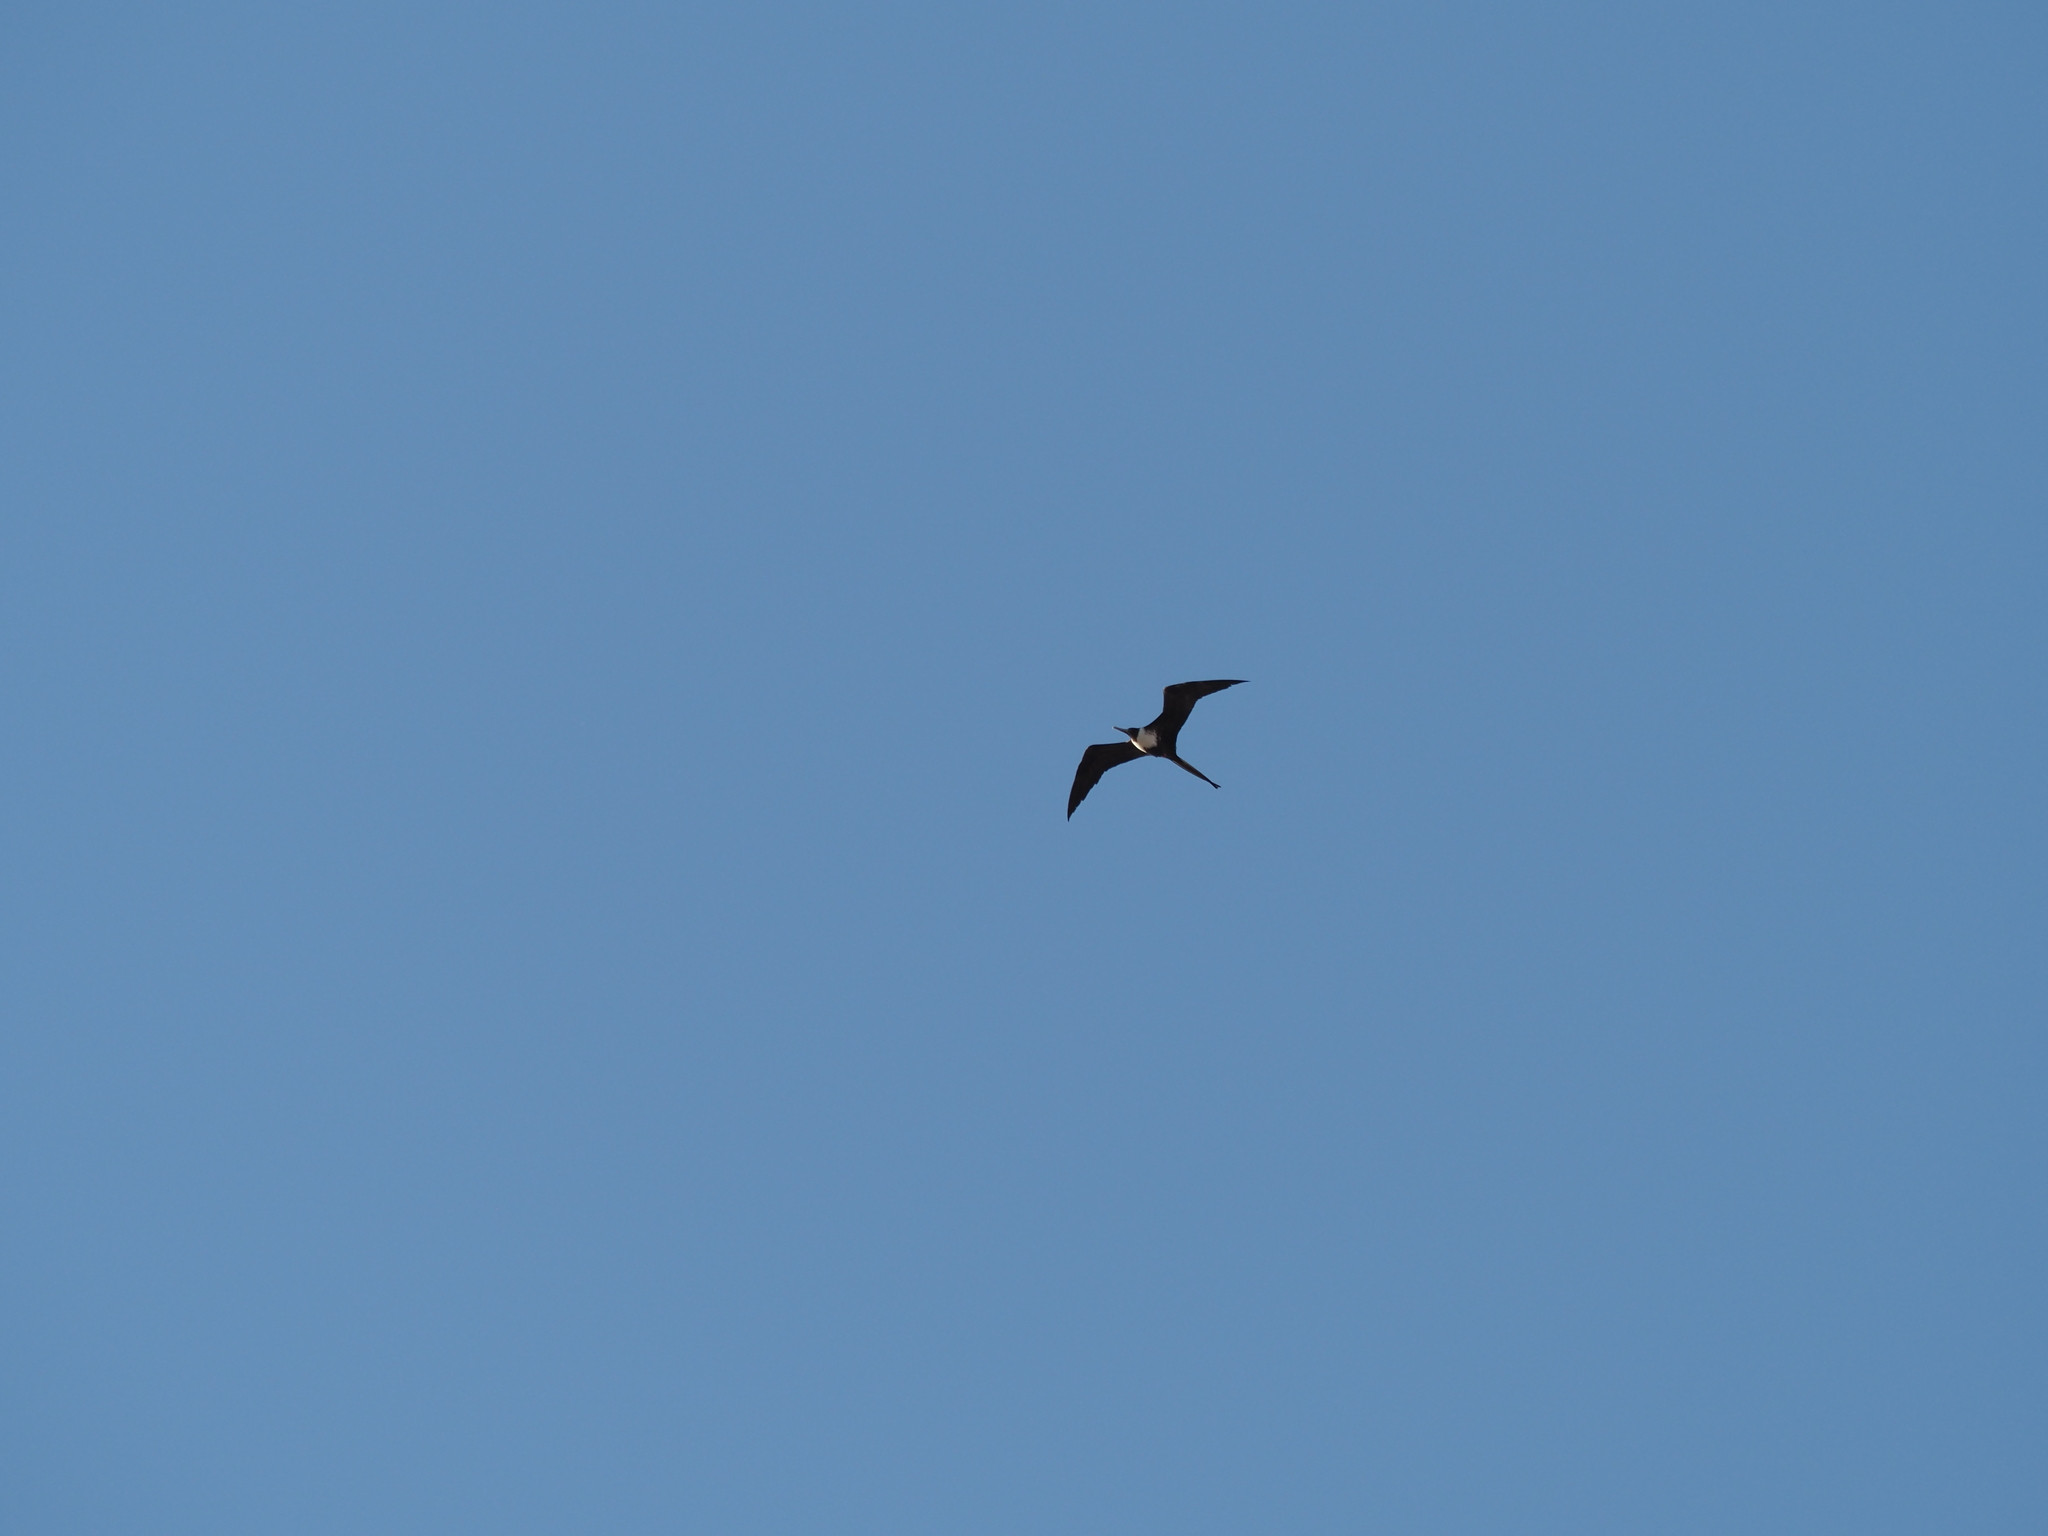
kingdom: Animalia
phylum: Chordata
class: Aves
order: Suliformes
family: Fregatidae
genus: Fregata
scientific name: Fregata magnificens
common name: Magnificent frigatebird
